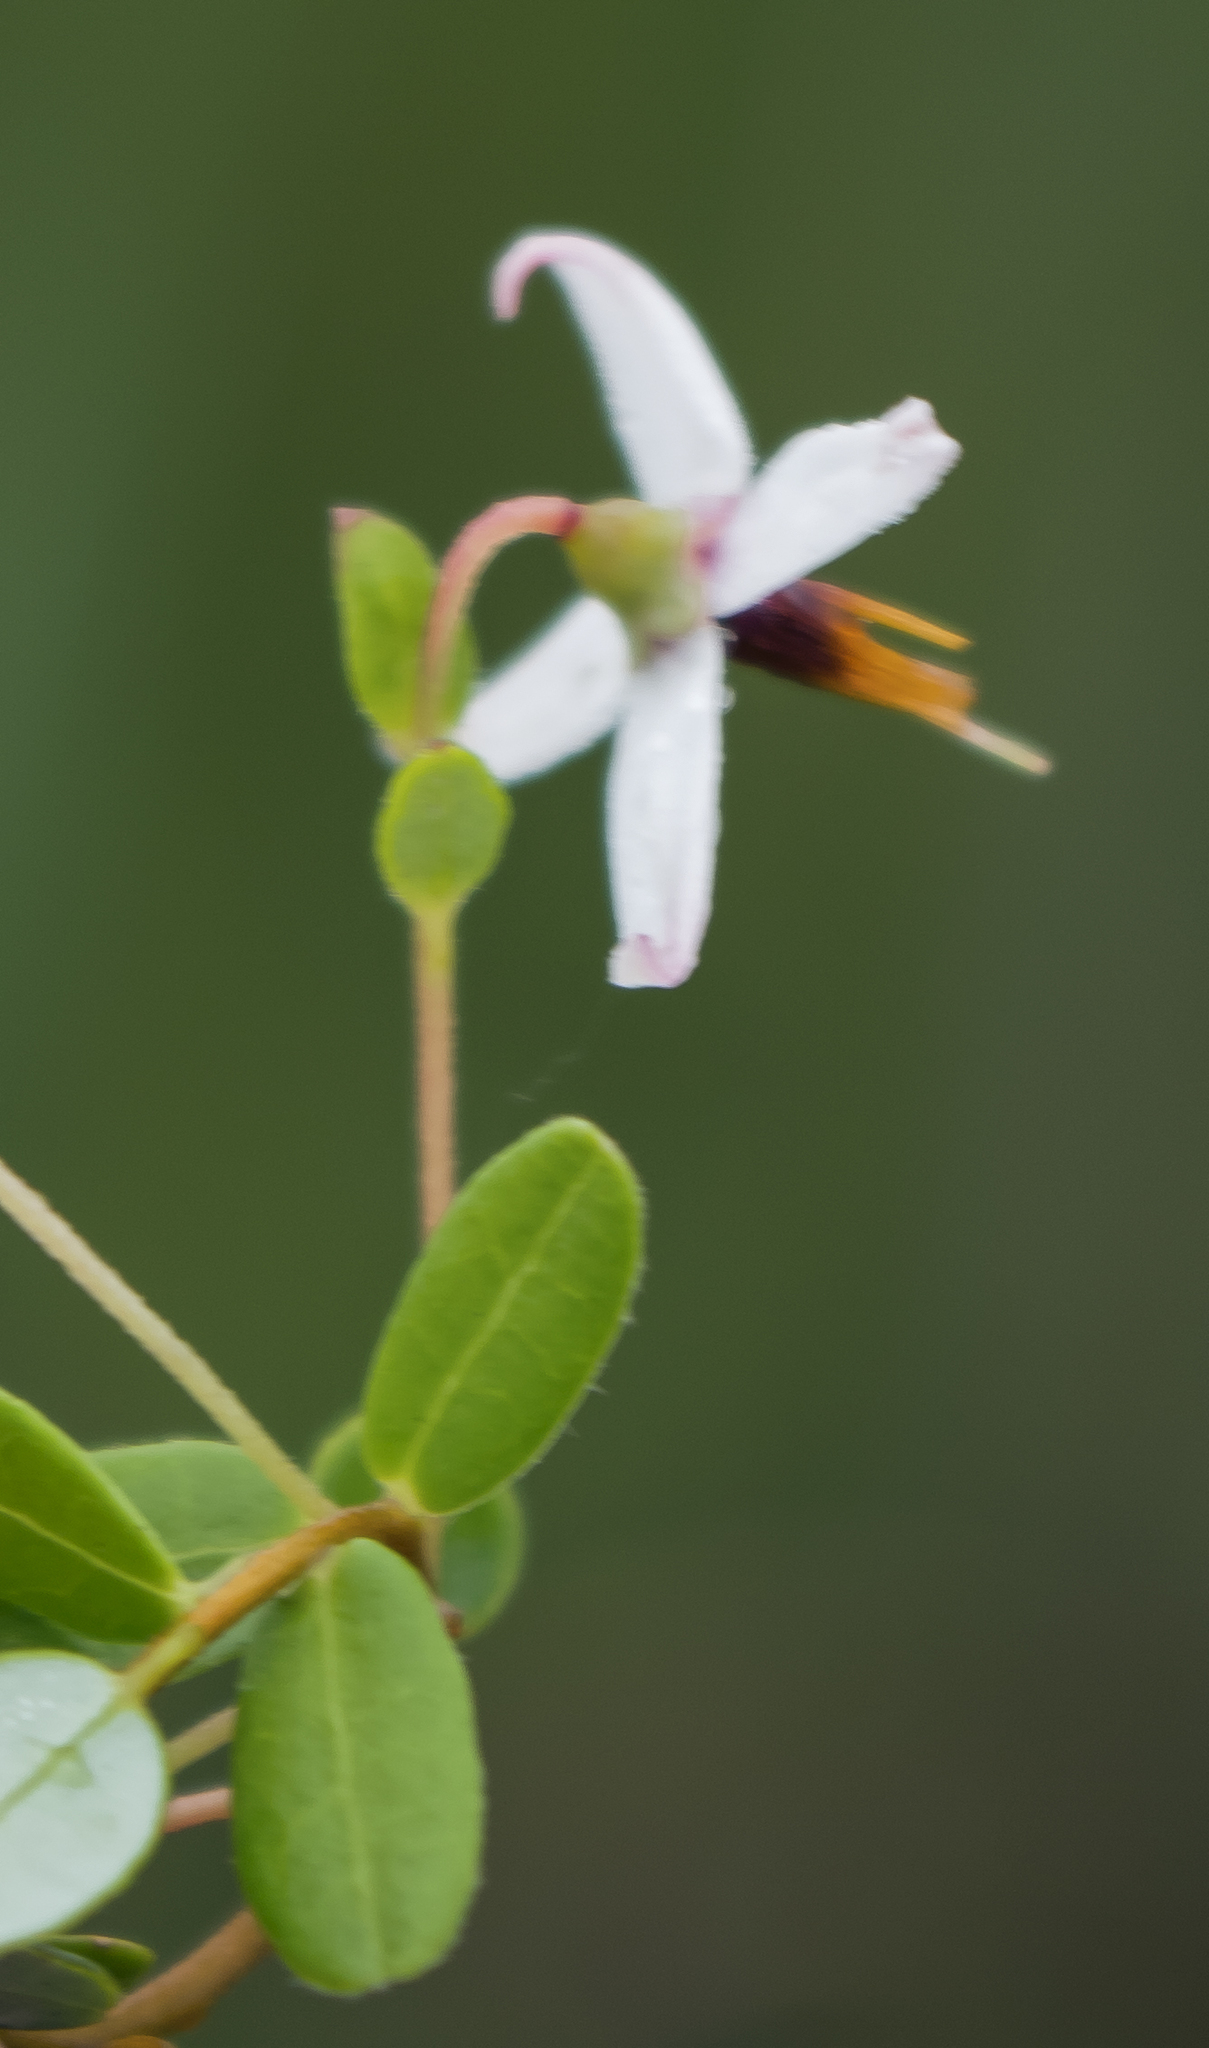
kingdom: Plantae
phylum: Tracheophyta
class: Magnoliopsida
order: Ericales
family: Ericaceae
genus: Vaccinium
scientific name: Vaccinium macrocarpon
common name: American cranberry
